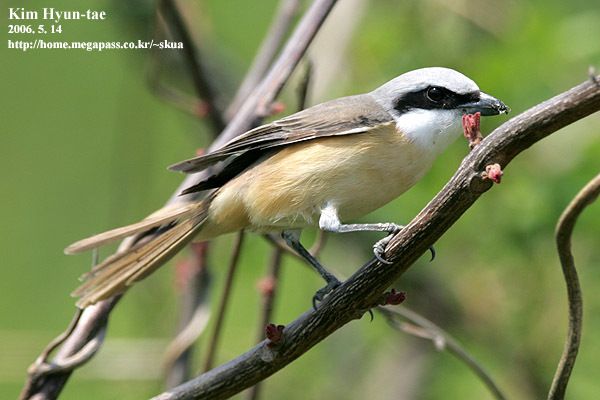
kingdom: Animalia
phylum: Chordata
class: Aves
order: Passeriformes
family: Laniidae
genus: Lanius
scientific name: Lanius cristatus
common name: Brown shrike
